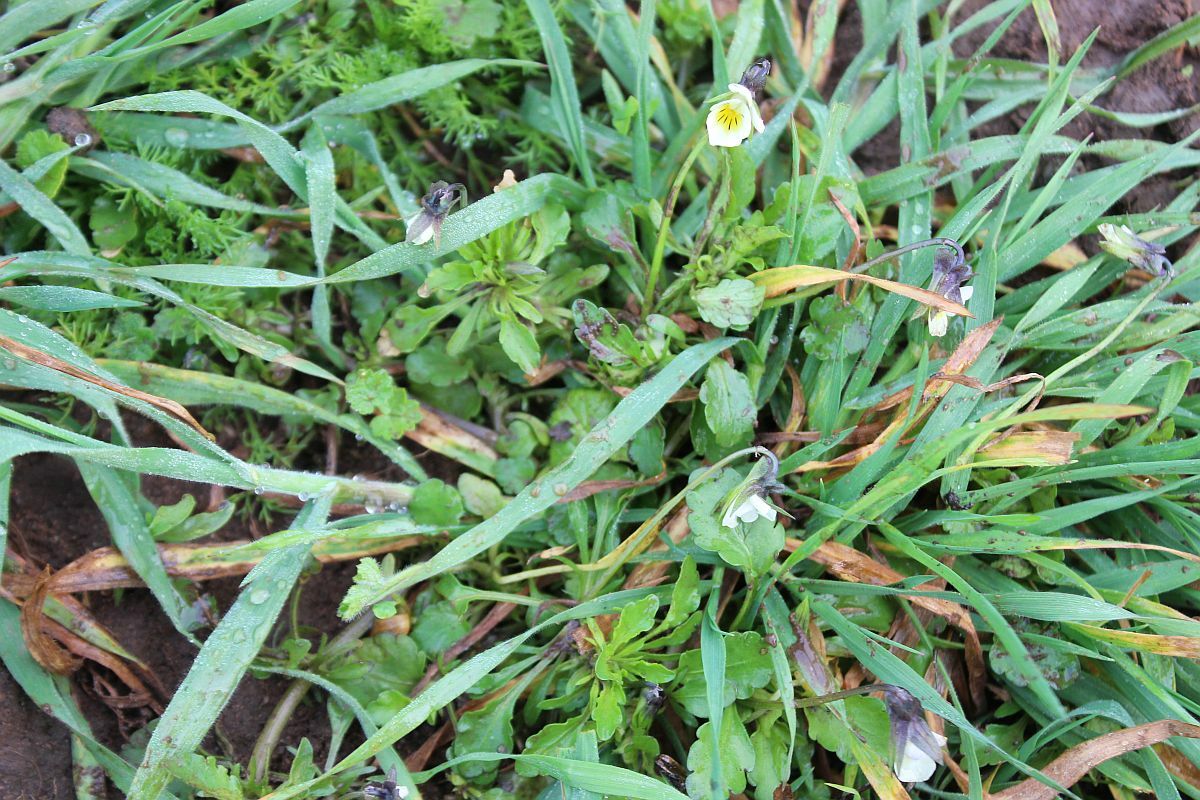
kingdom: Plantae
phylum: Tracheophyta
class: Magnoliopsida
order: Malpighiales
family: Violaceae
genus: Viola
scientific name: Viola arvensis
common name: Field pansy
